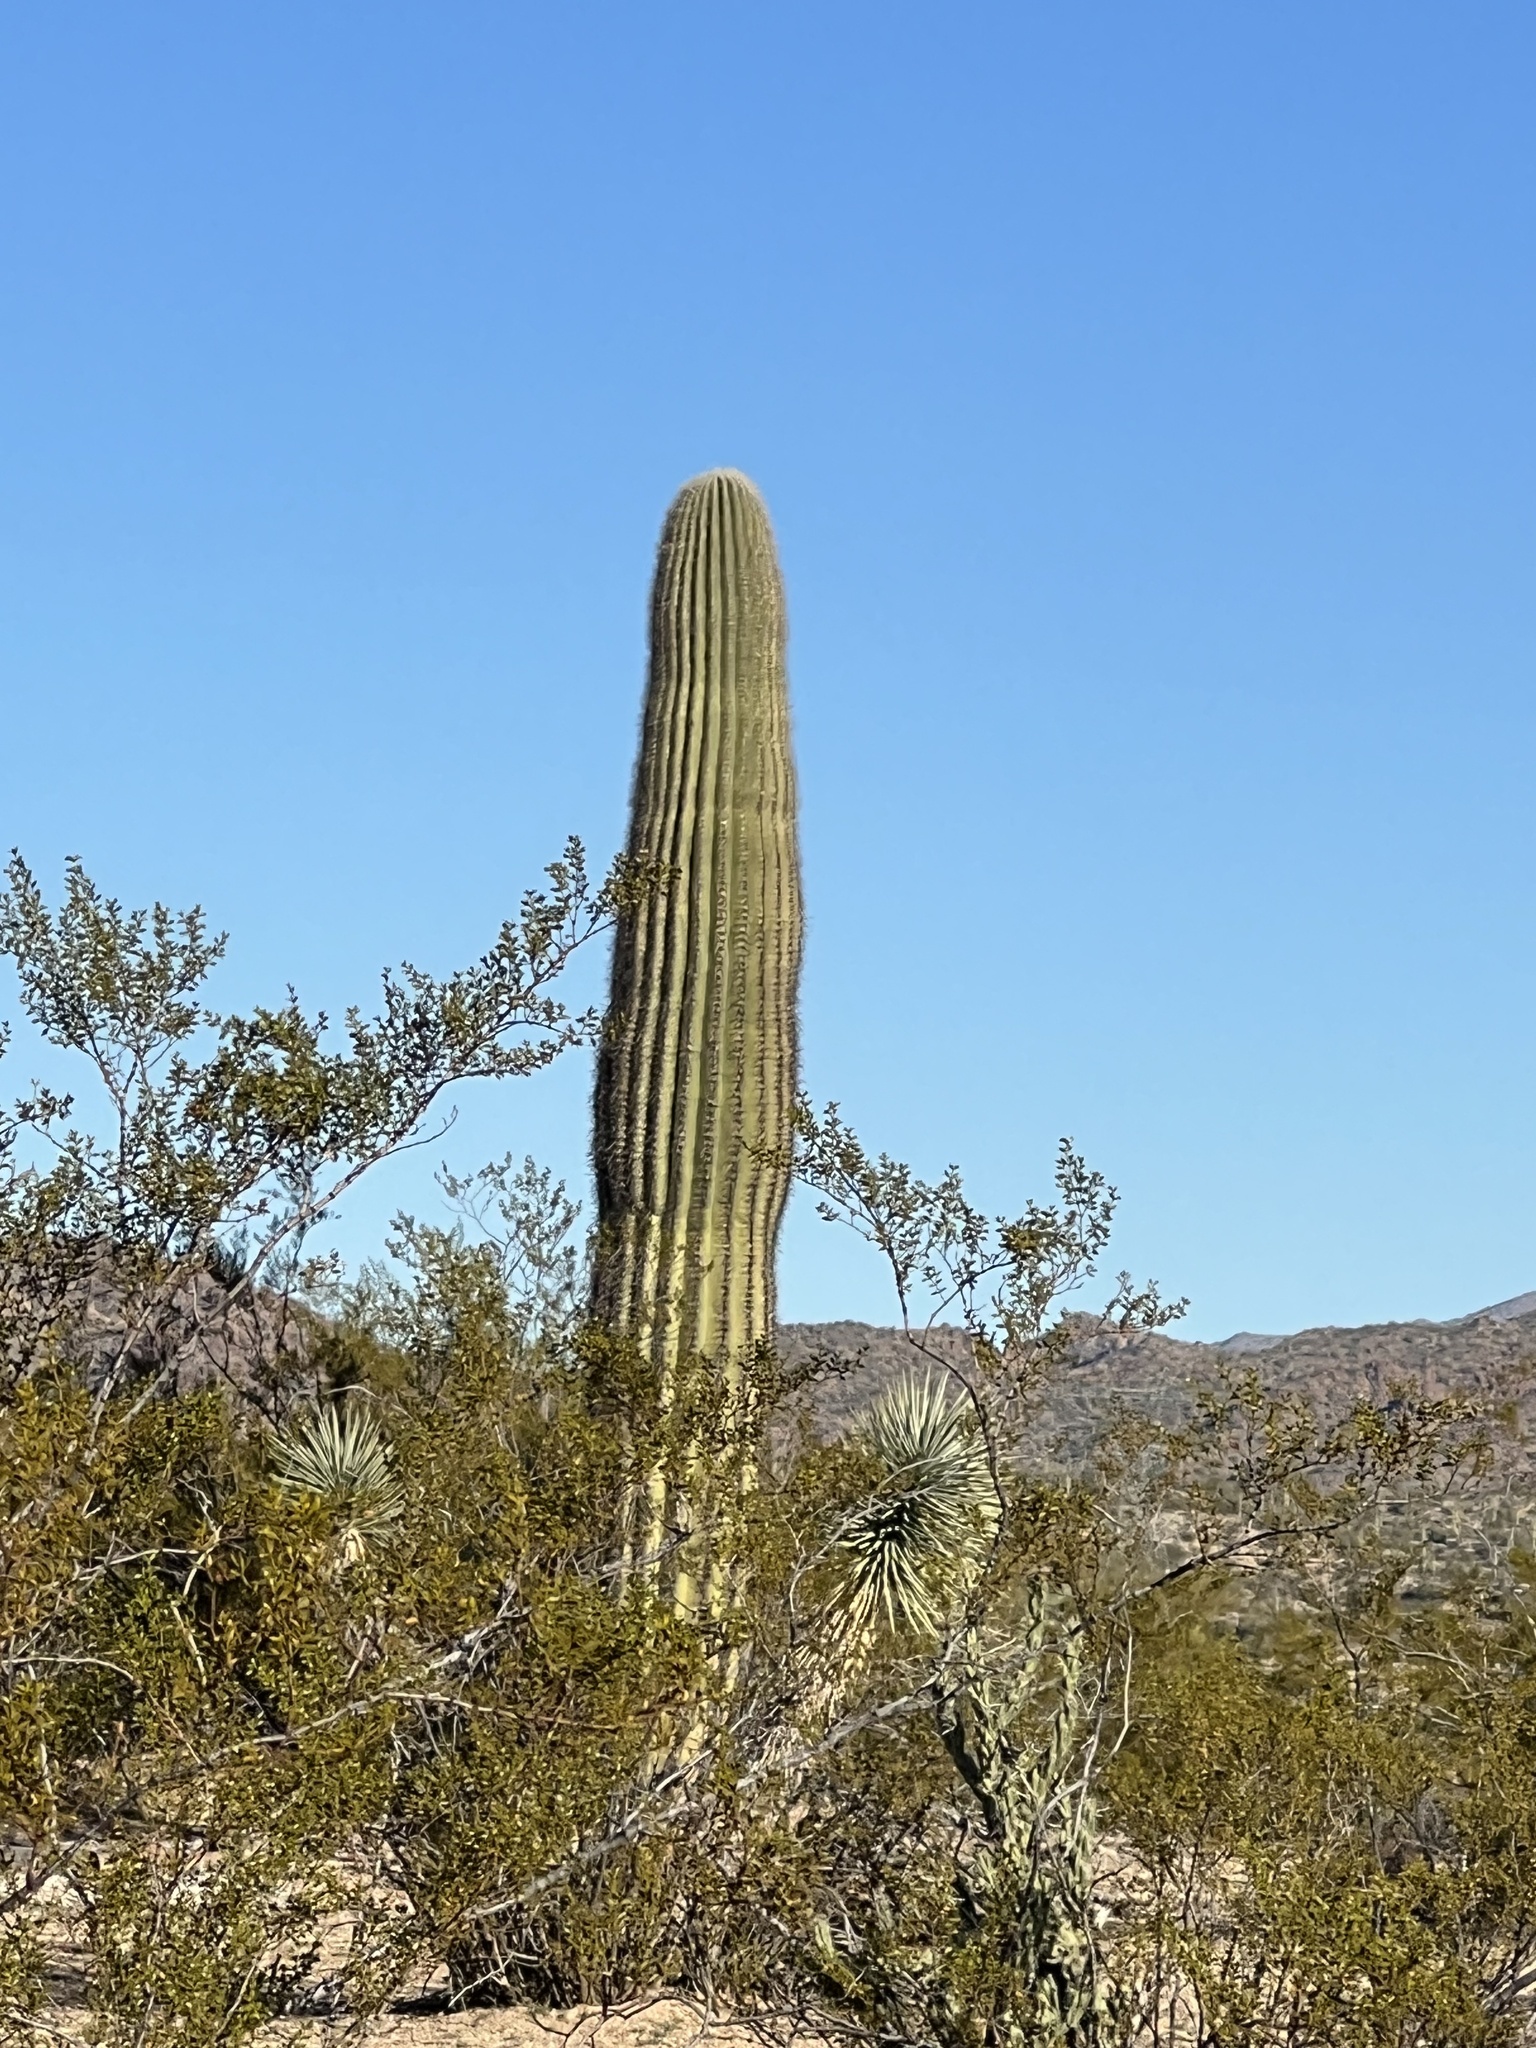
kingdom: Plantae
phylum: Tracheophyta
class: Magnoliopsida
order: Caryophyllales
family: Cactaceae
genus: Carnegiea
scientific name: Carnegiea gigantea
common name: Saguaro
